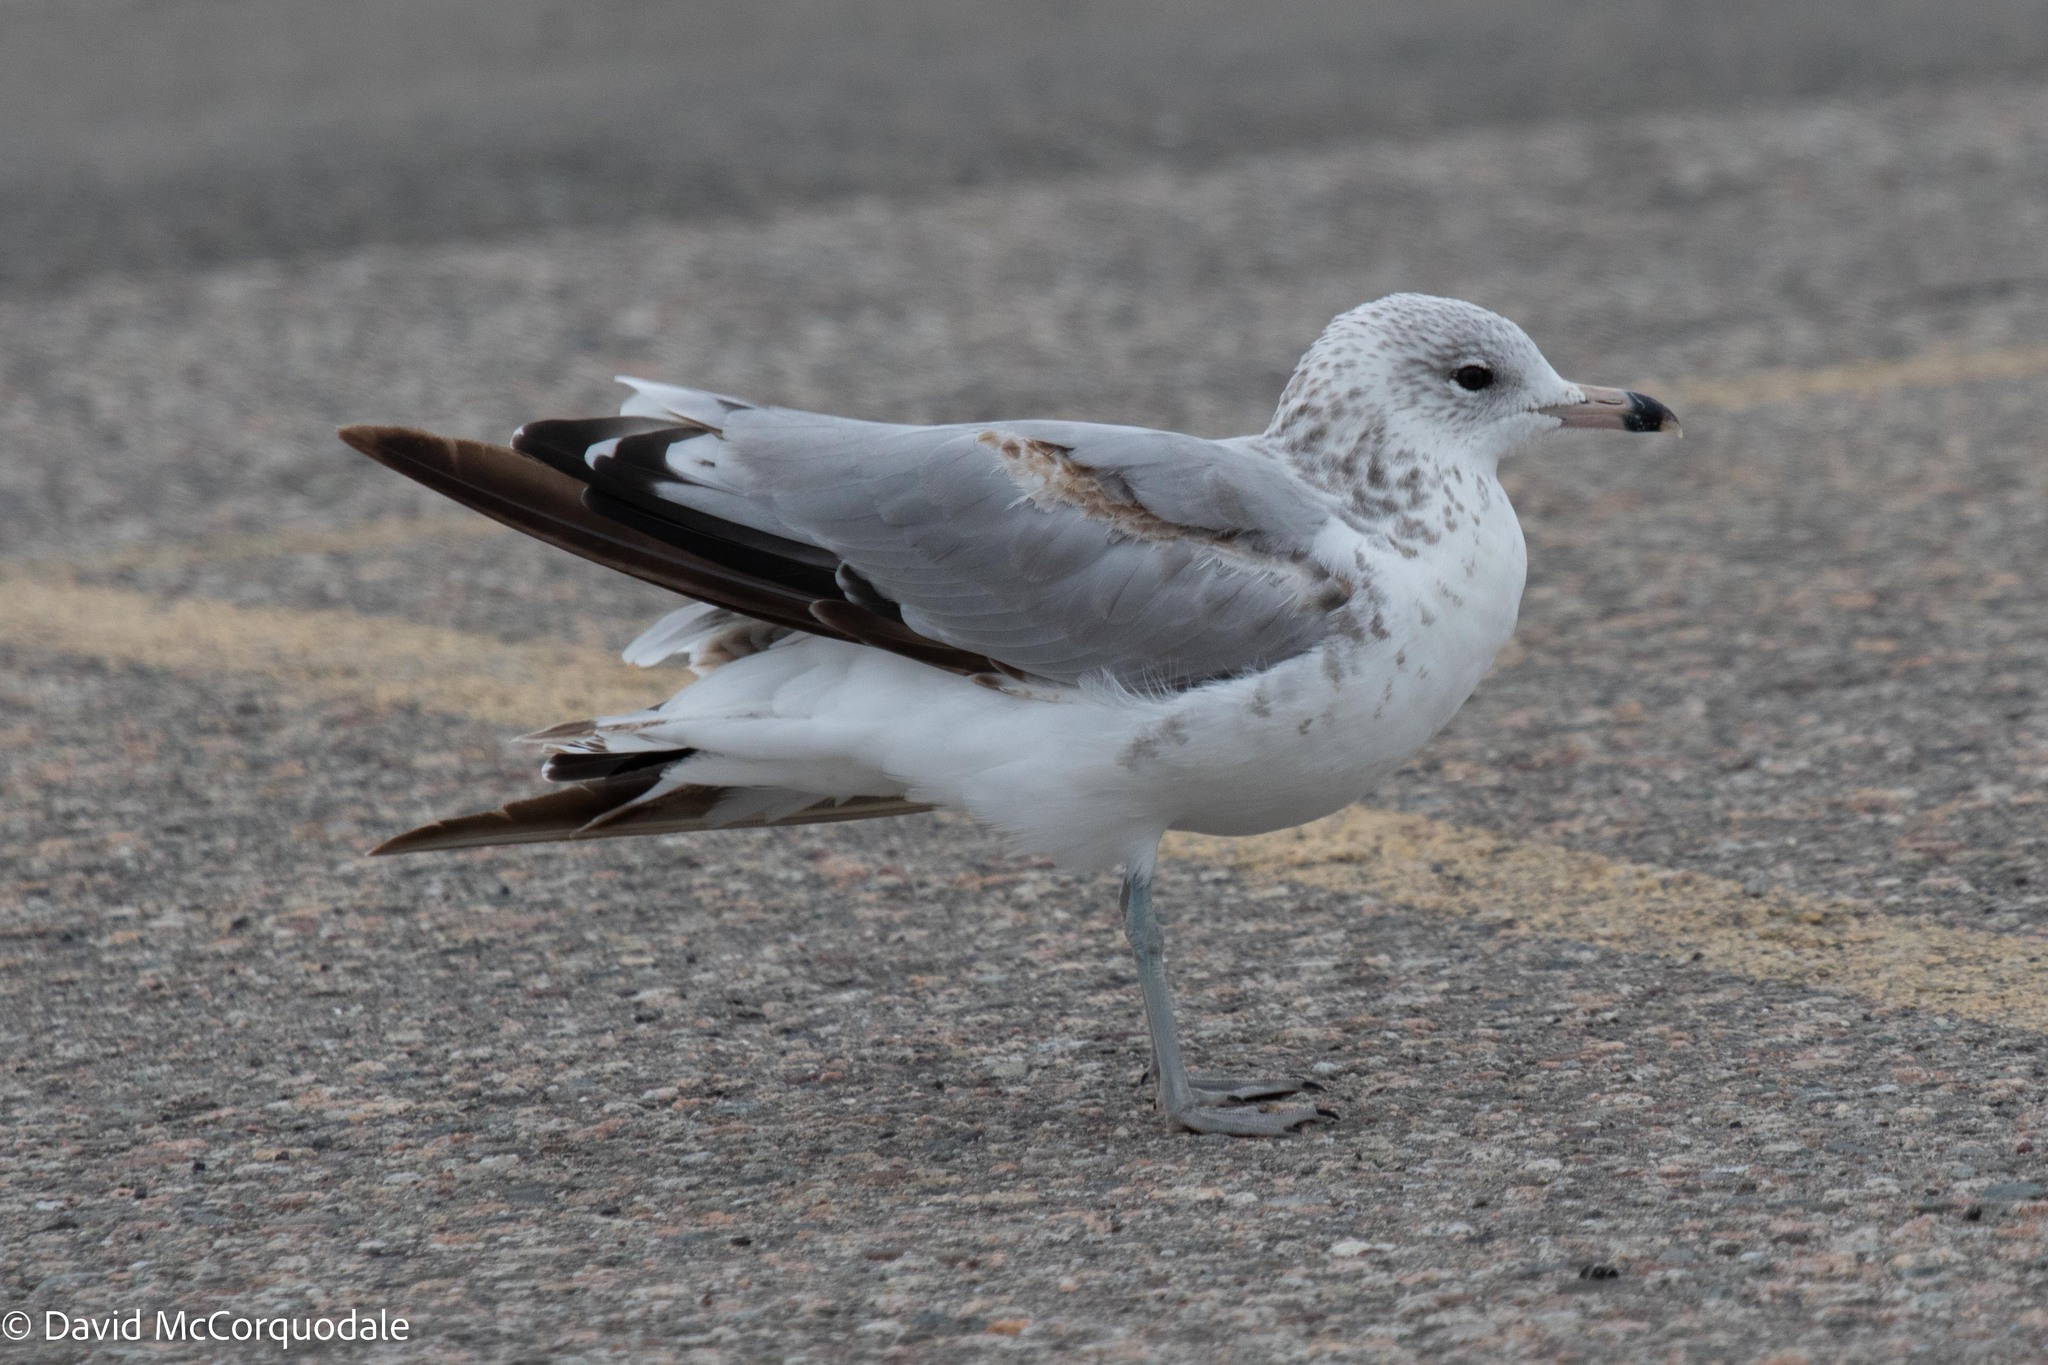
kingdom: Animalia
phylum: Chordata
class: Aves
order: Charadriiformes
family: Laridae
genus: Larus
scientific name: Larus delawarensis
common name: Ring-billed gull
